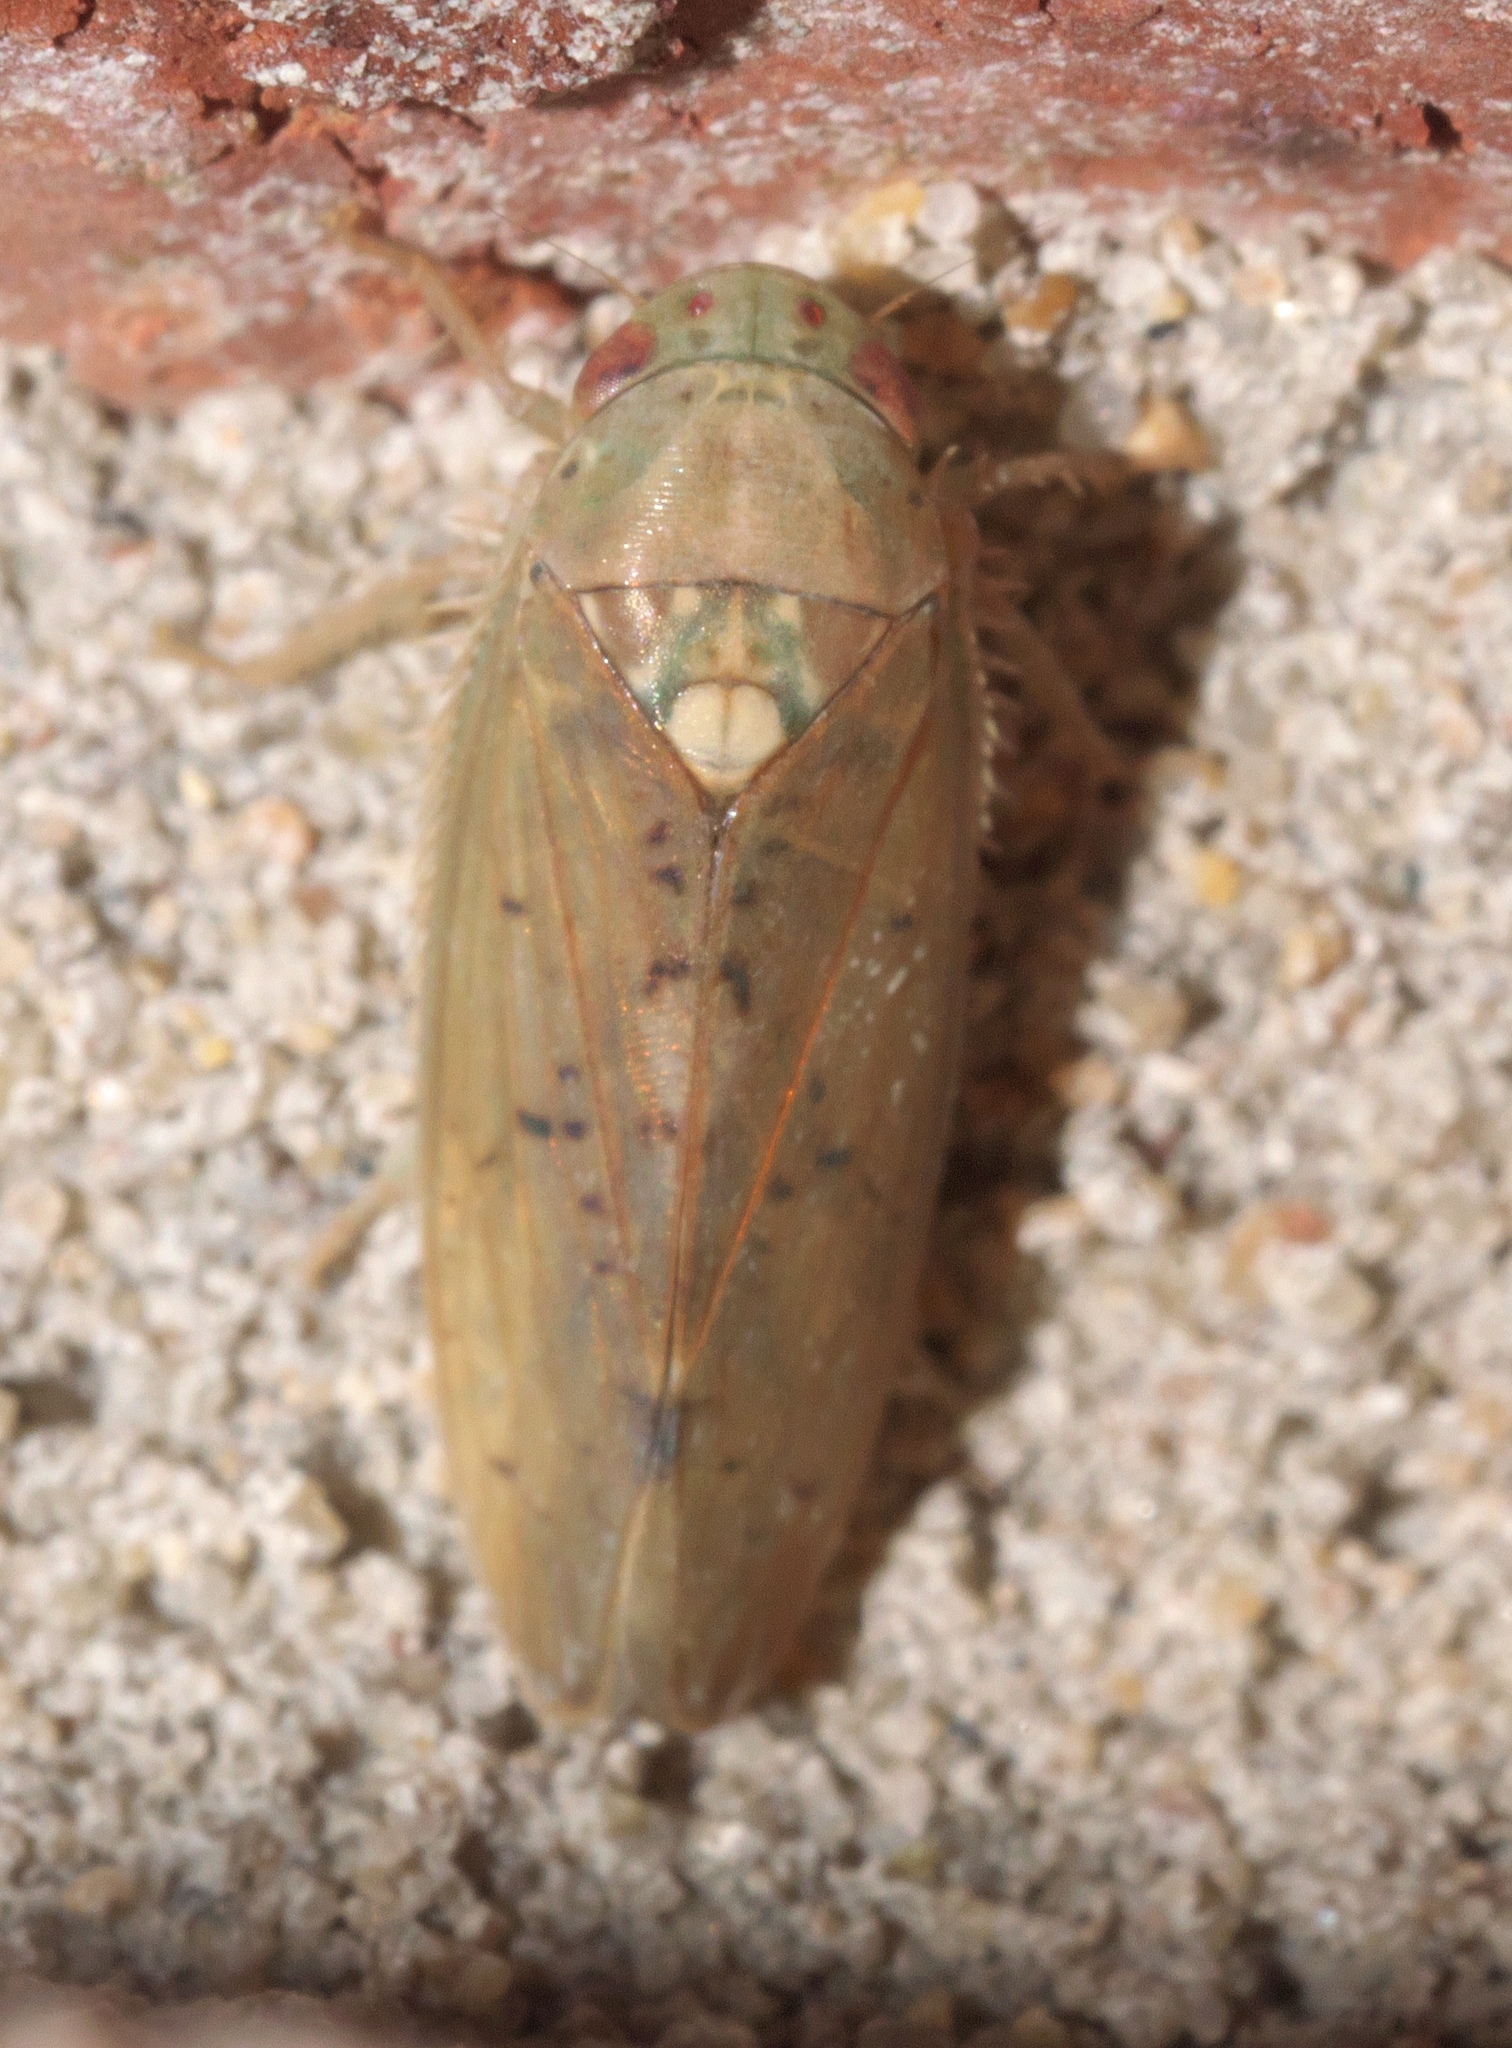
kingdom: Animalia
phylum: Arthropoda
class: Insecta
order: Hemiptera
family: Cicadellidae
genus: Ponana
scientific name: Ponana quadralaba
